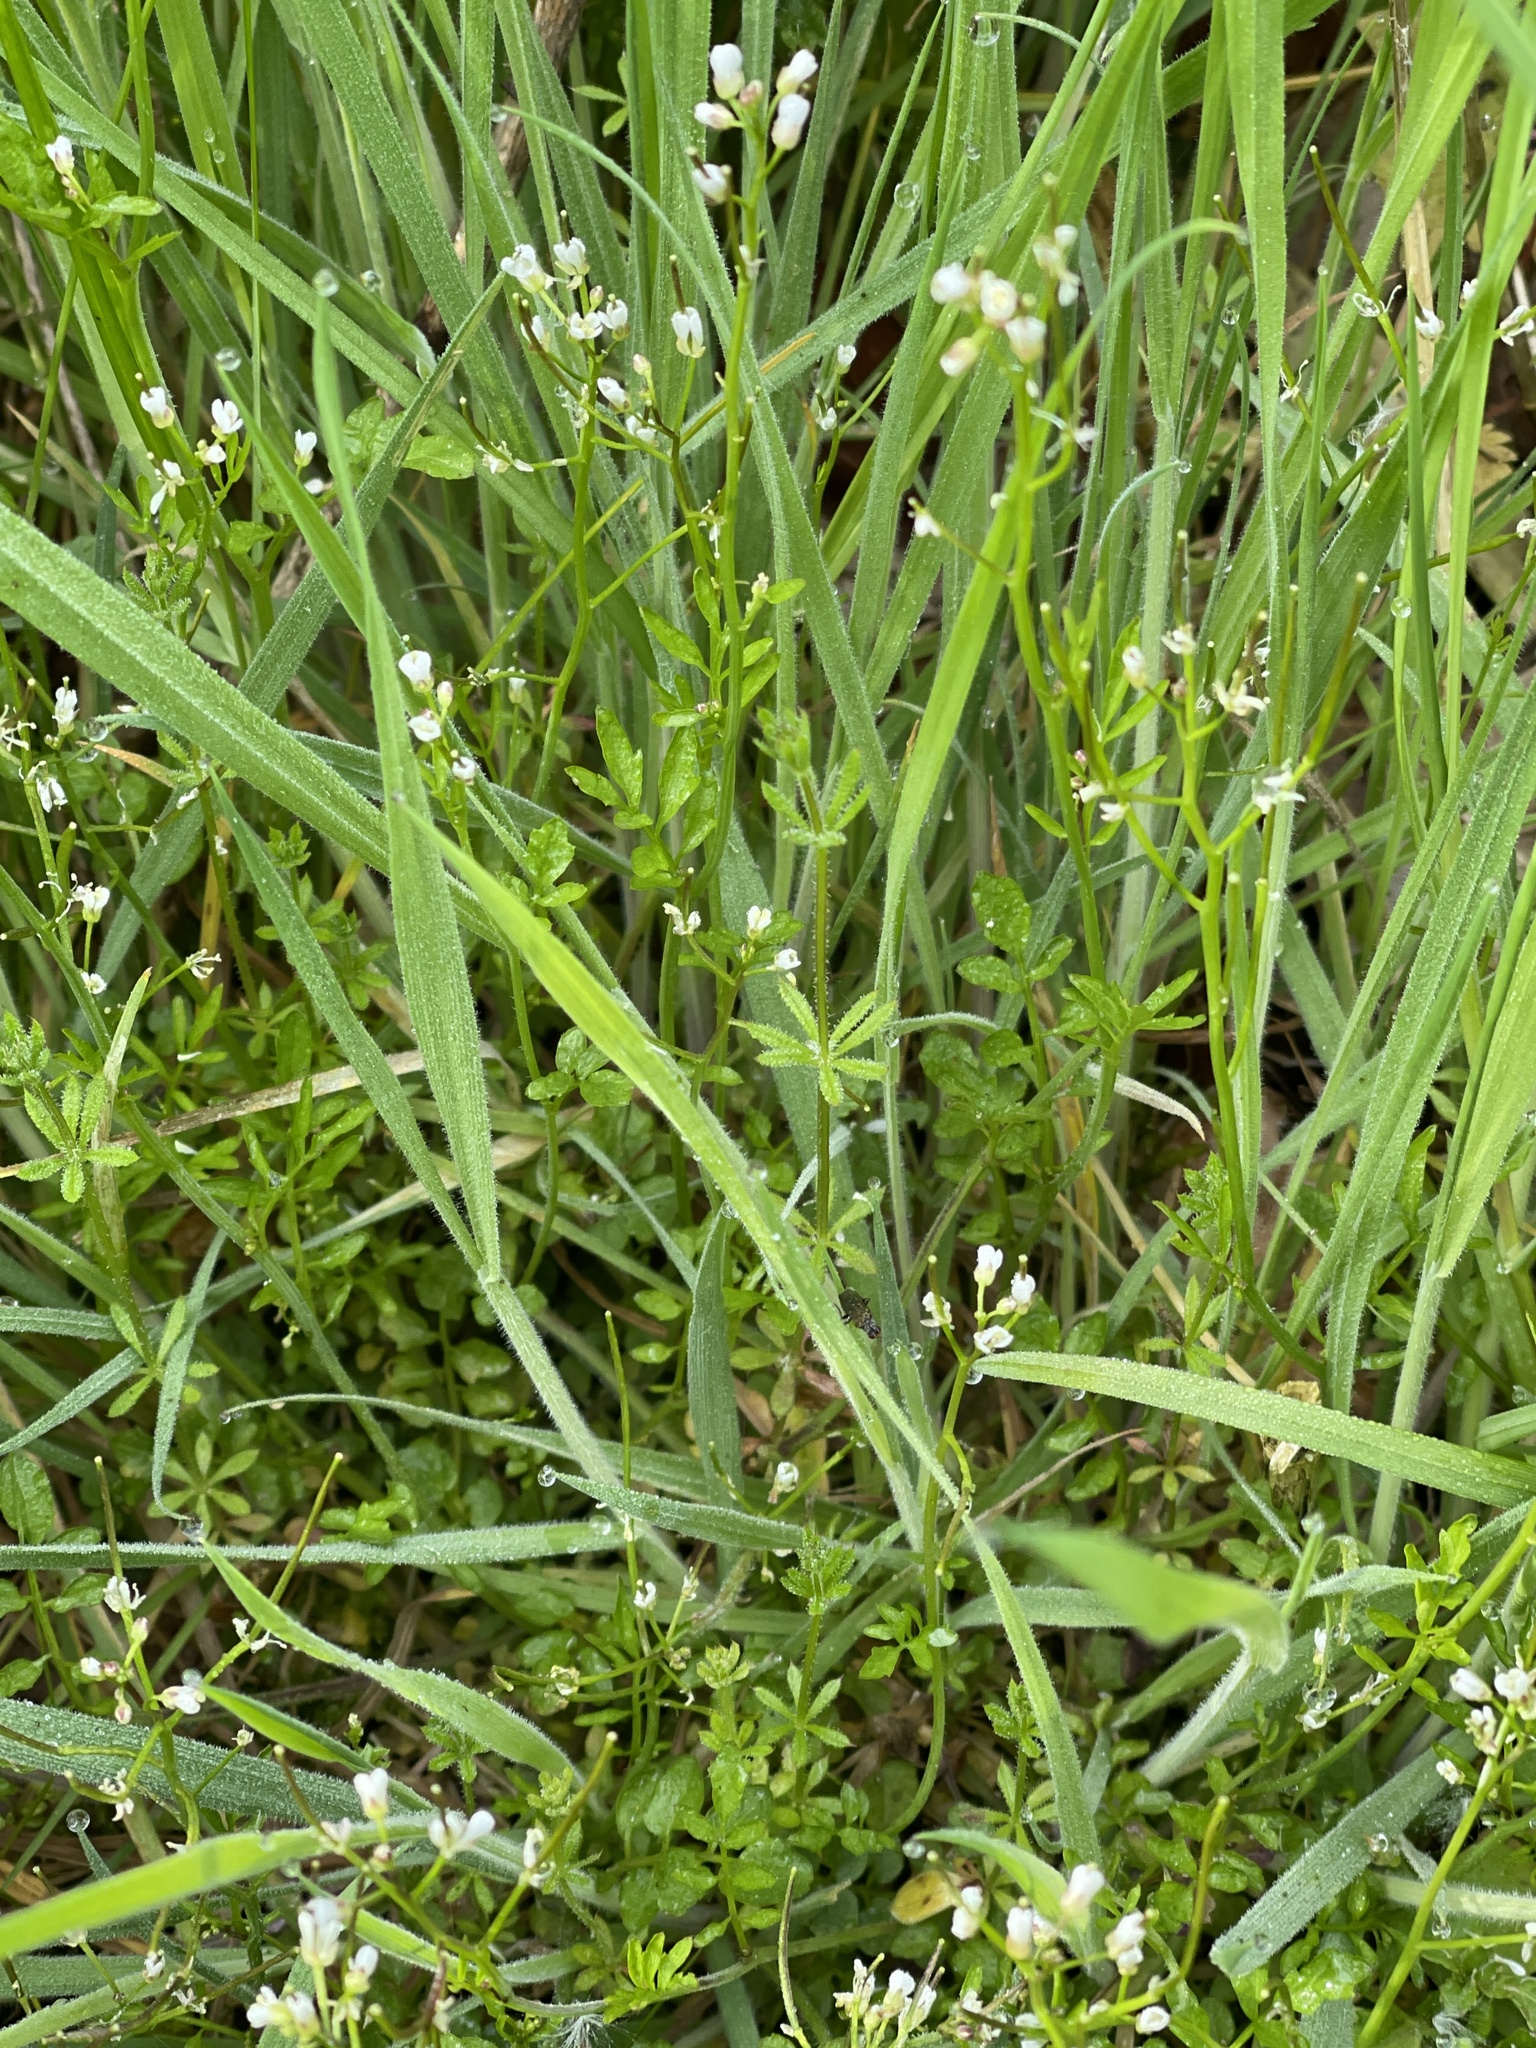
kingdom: Plantae
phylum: Tracheophyta
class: Magnoliopsida
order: Brassicales
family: Brassicaceae
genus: Cardamine
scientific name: Cardamine flexuosa
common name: Woodland bittercress
